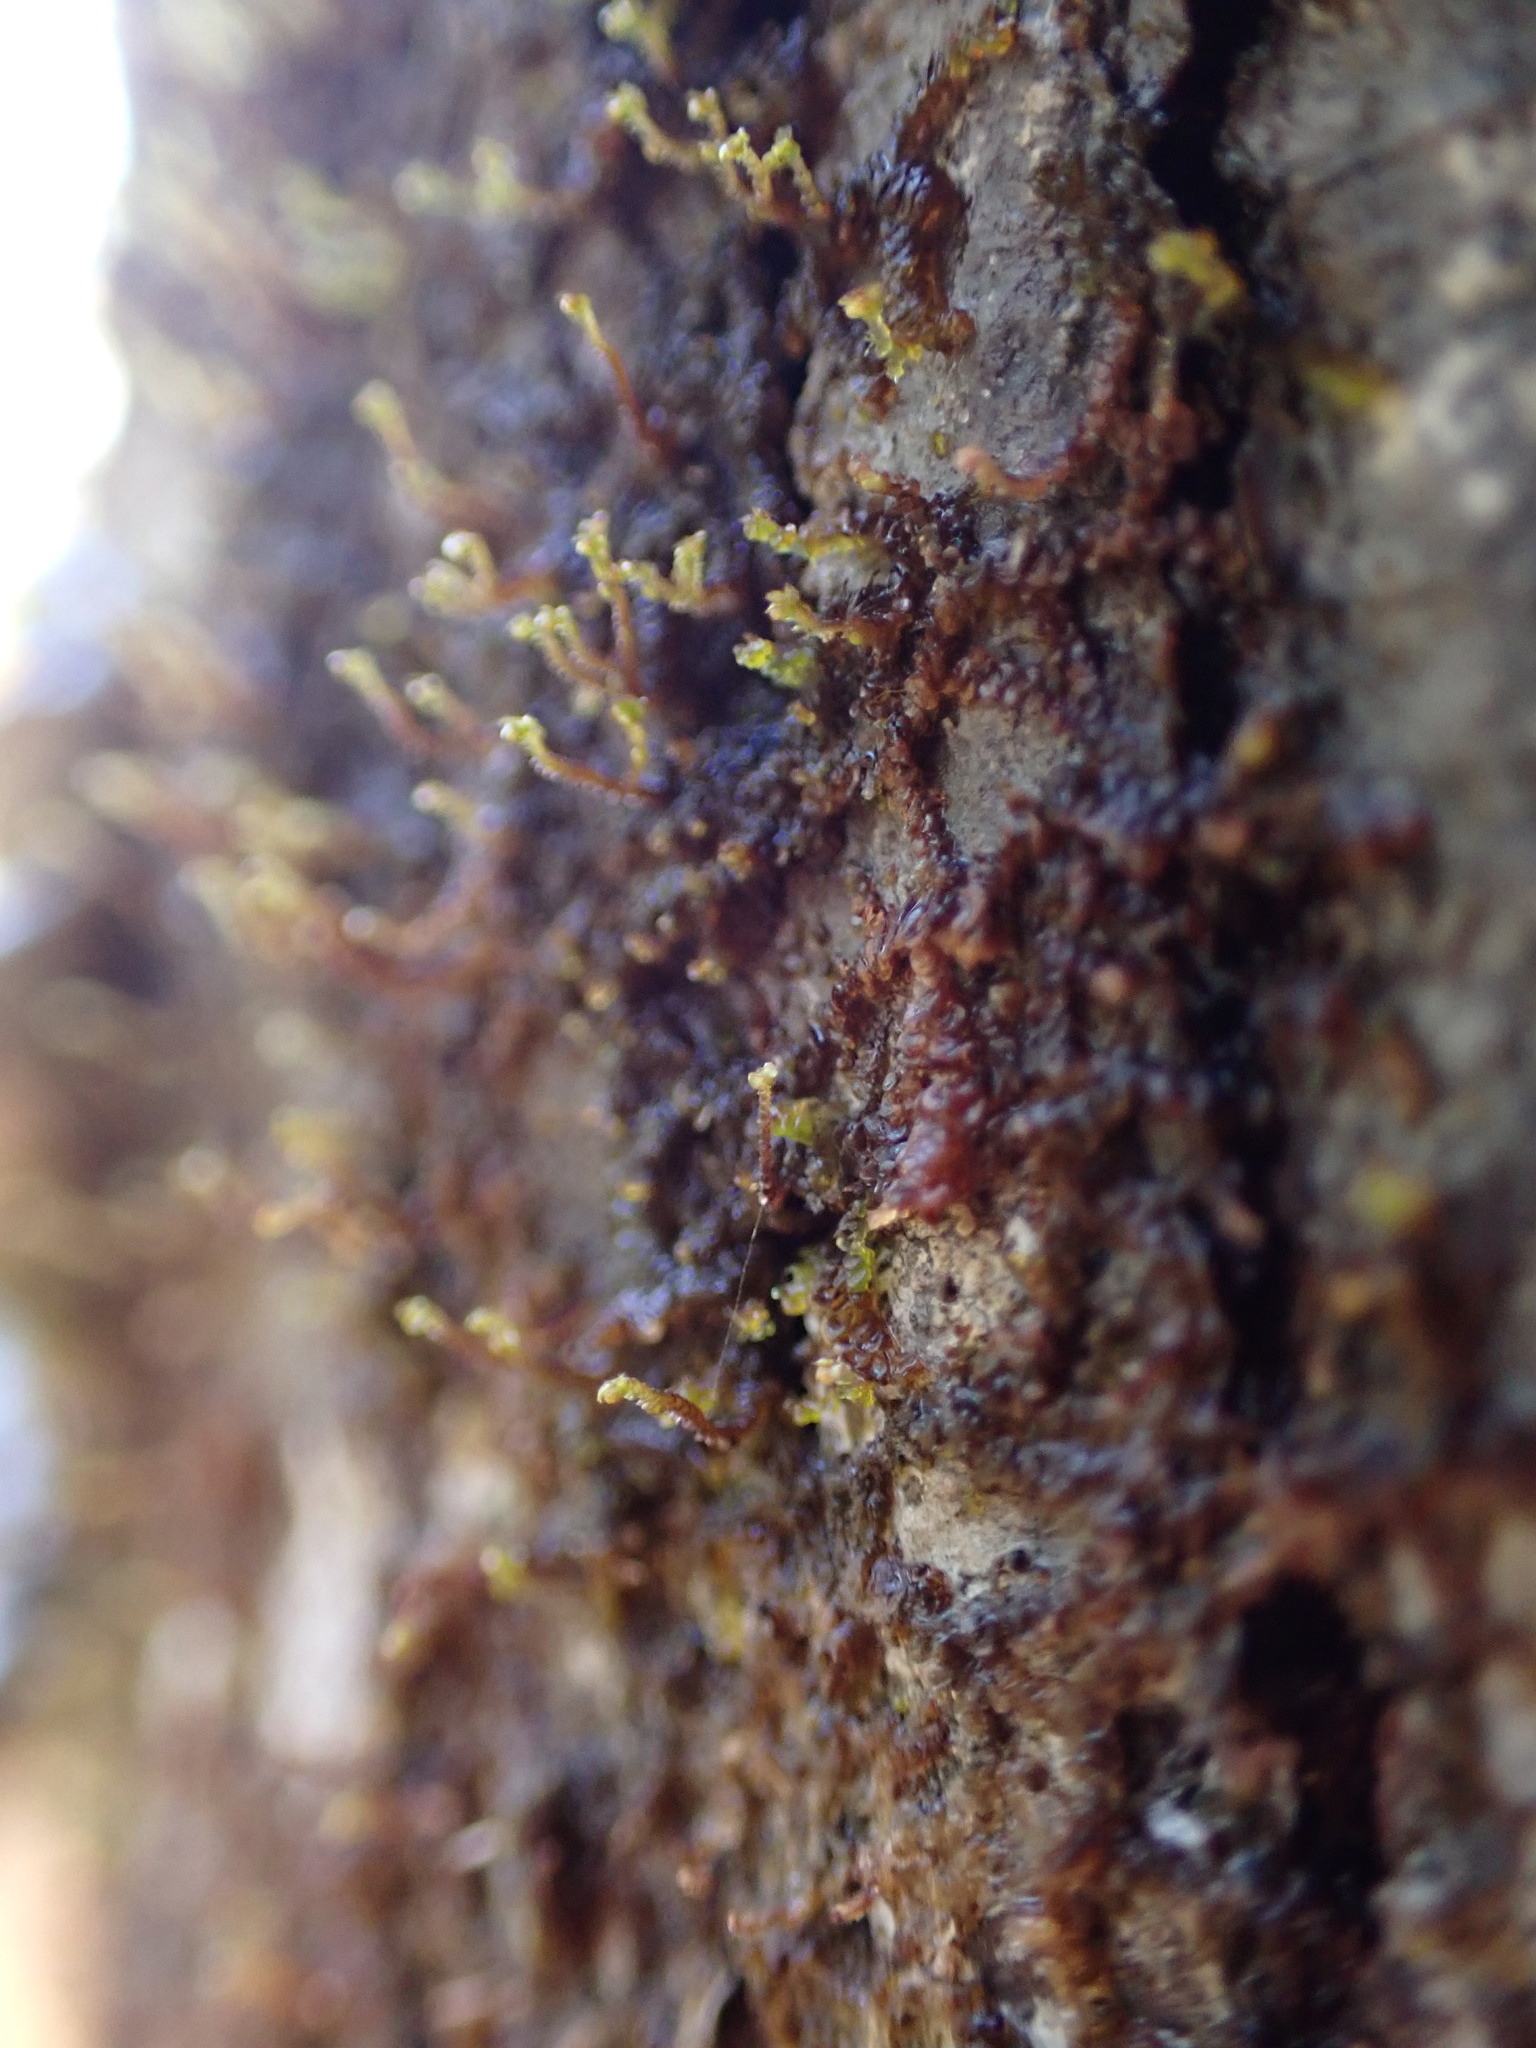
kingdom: Plantae
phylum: Marchantiophyta
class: Jungermanniopsida
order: Porellales
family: Frullaniaceae
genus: Frullania
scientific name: Frullania bolanderi
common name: Bolander s scalewort
